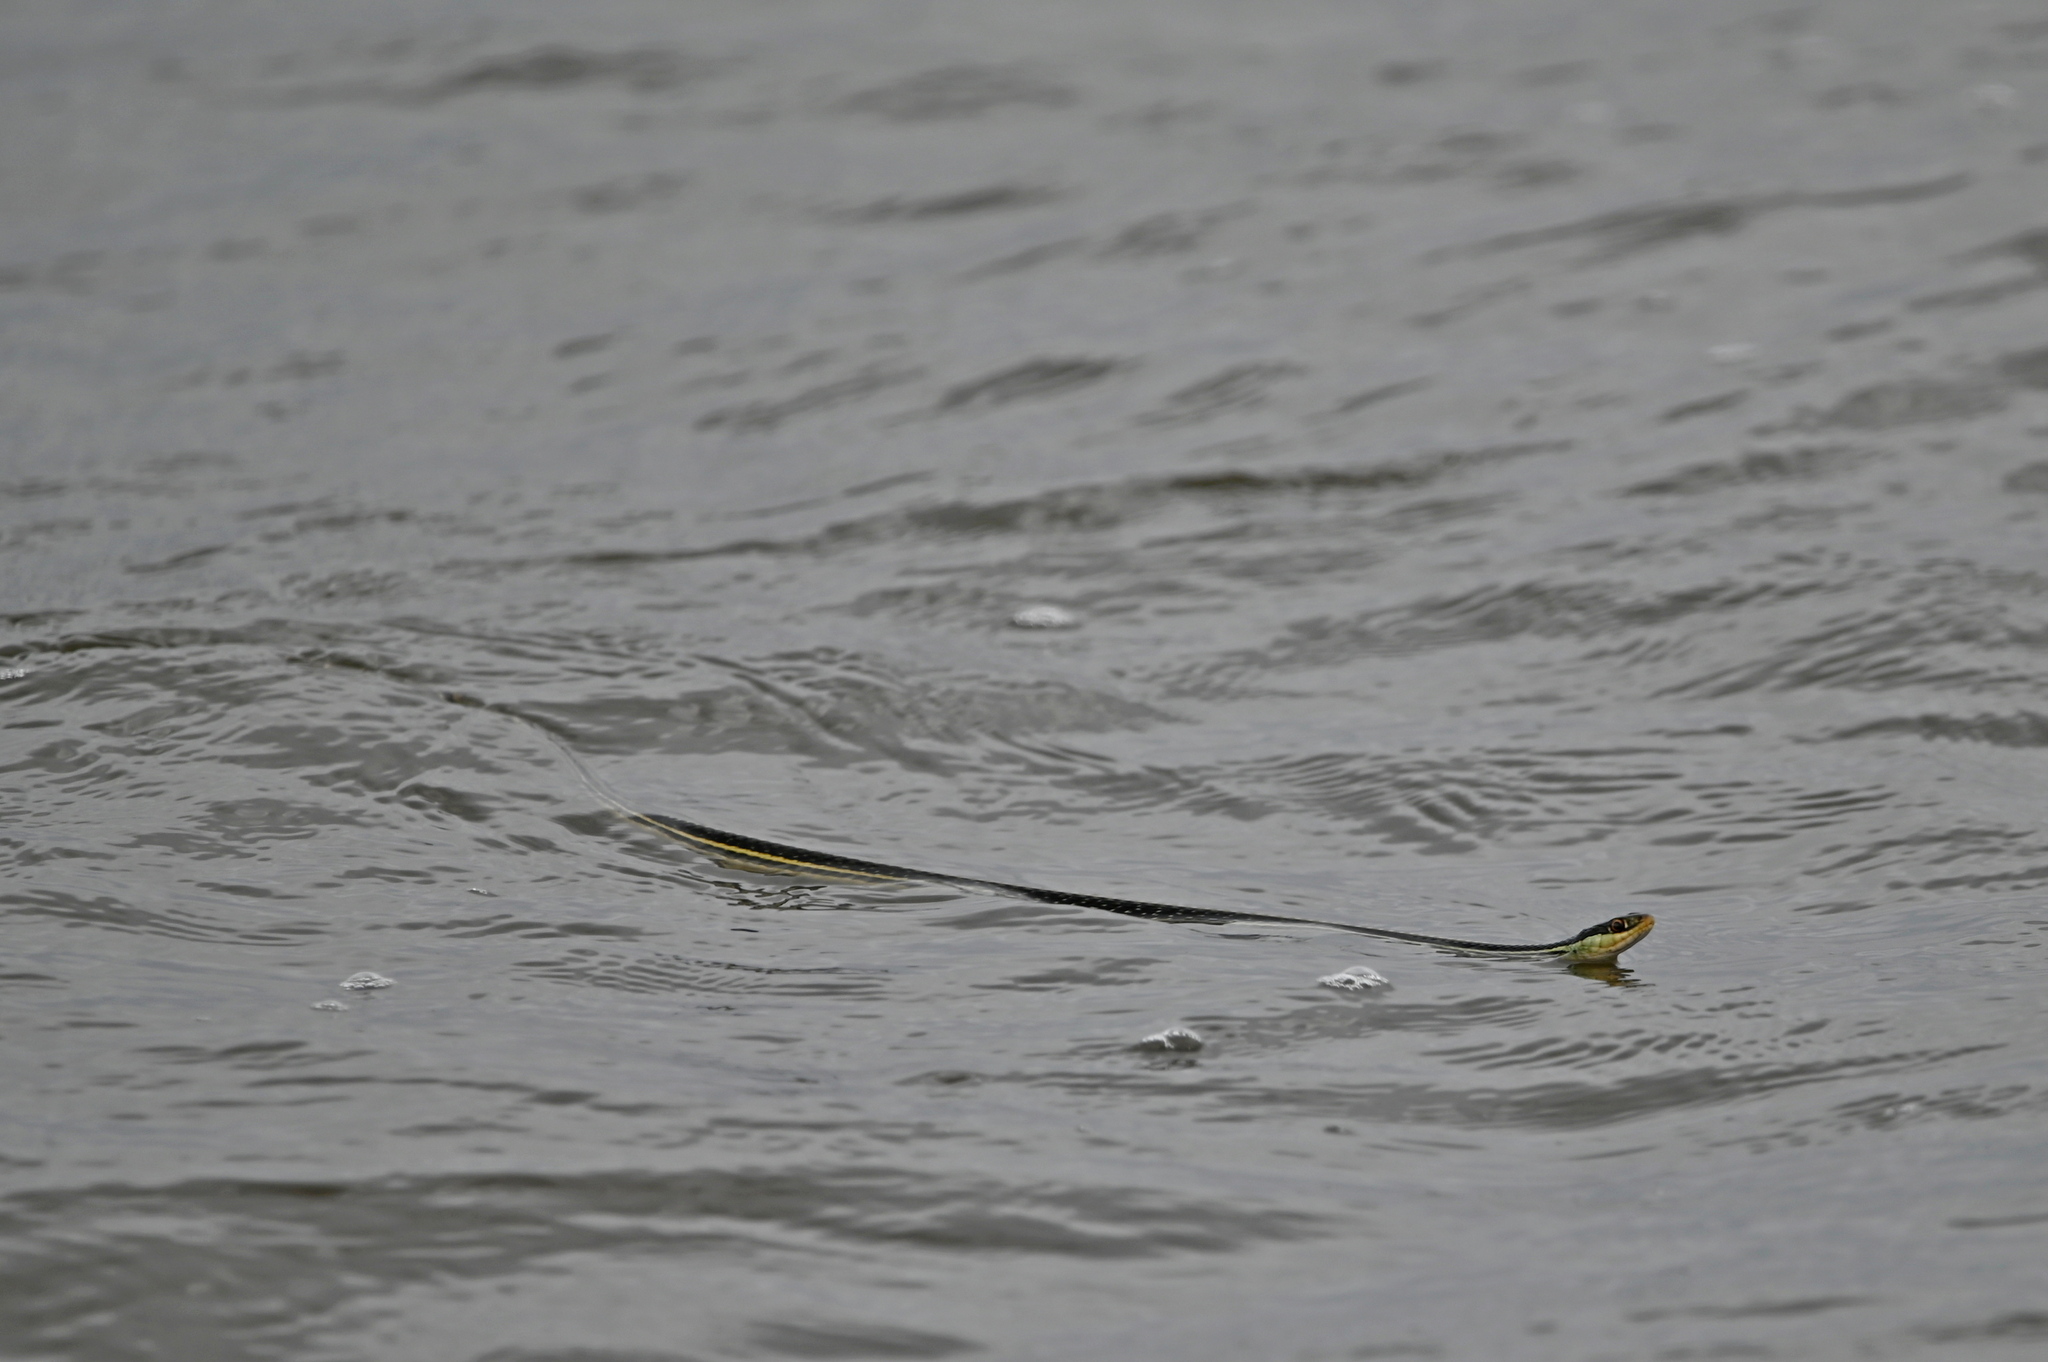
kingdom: Animalia
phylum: Chordata
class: Squamata
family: Colubridae
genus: Thamnophis
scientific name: Thamnophis proximus
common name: Western ribbon snake
